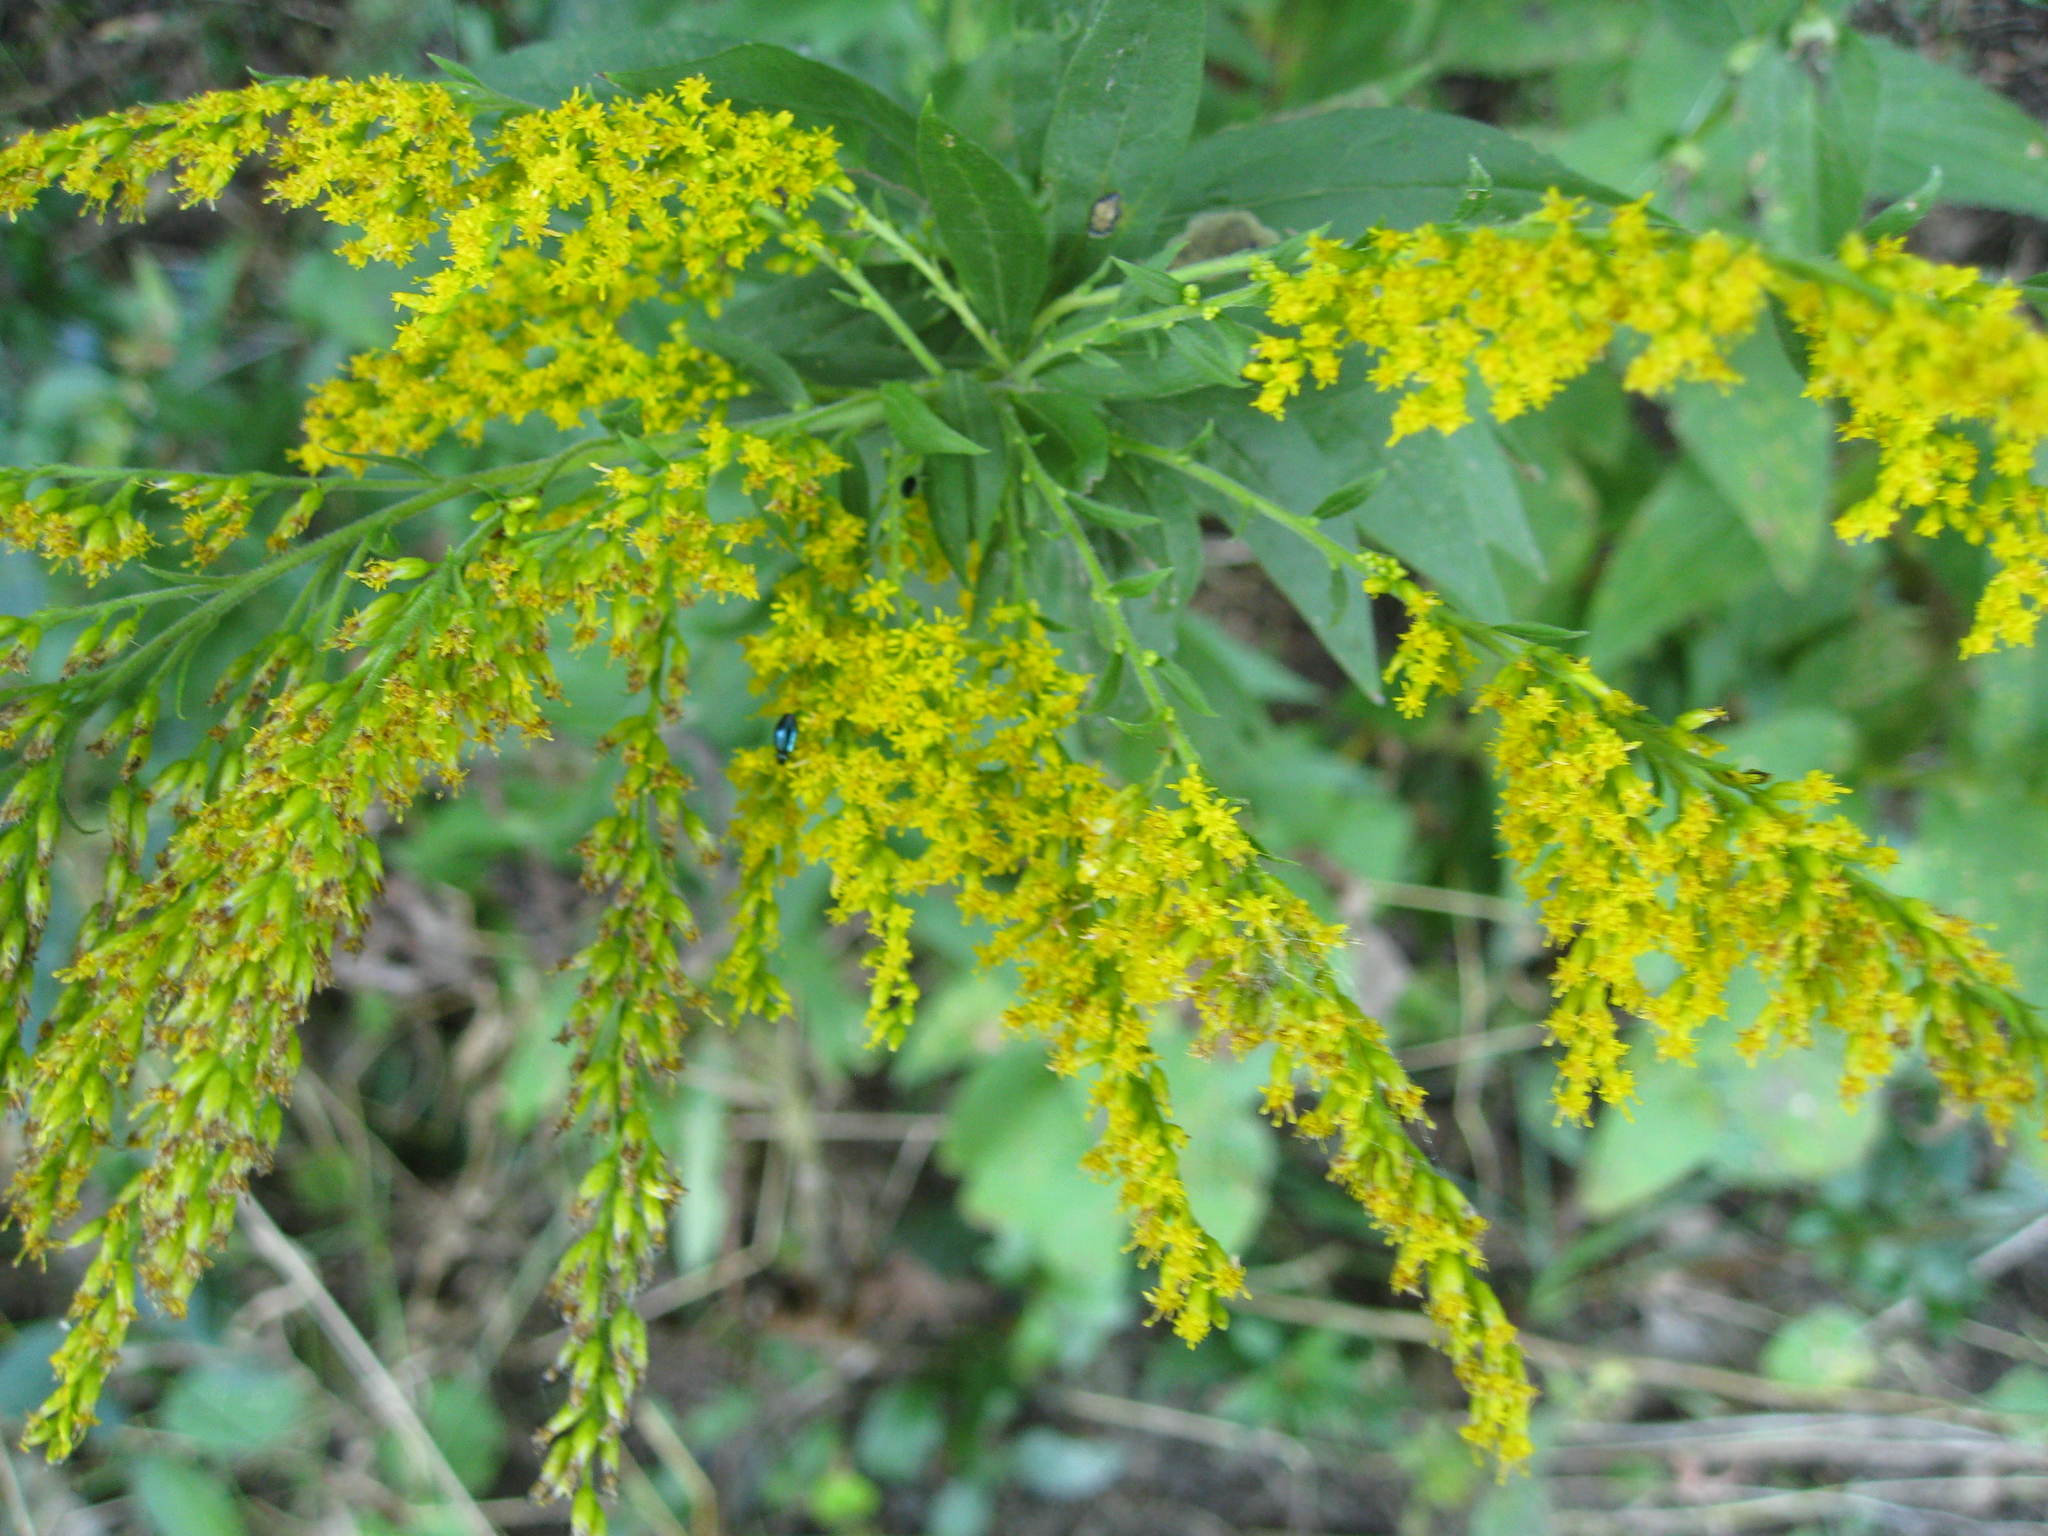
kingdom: Plantae
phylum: Tracheophyta
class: Magnoliopsida
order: Asterales
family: Asteraceae
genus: Solidago
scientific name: Solidago canadensis
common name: Canada goldenrod
